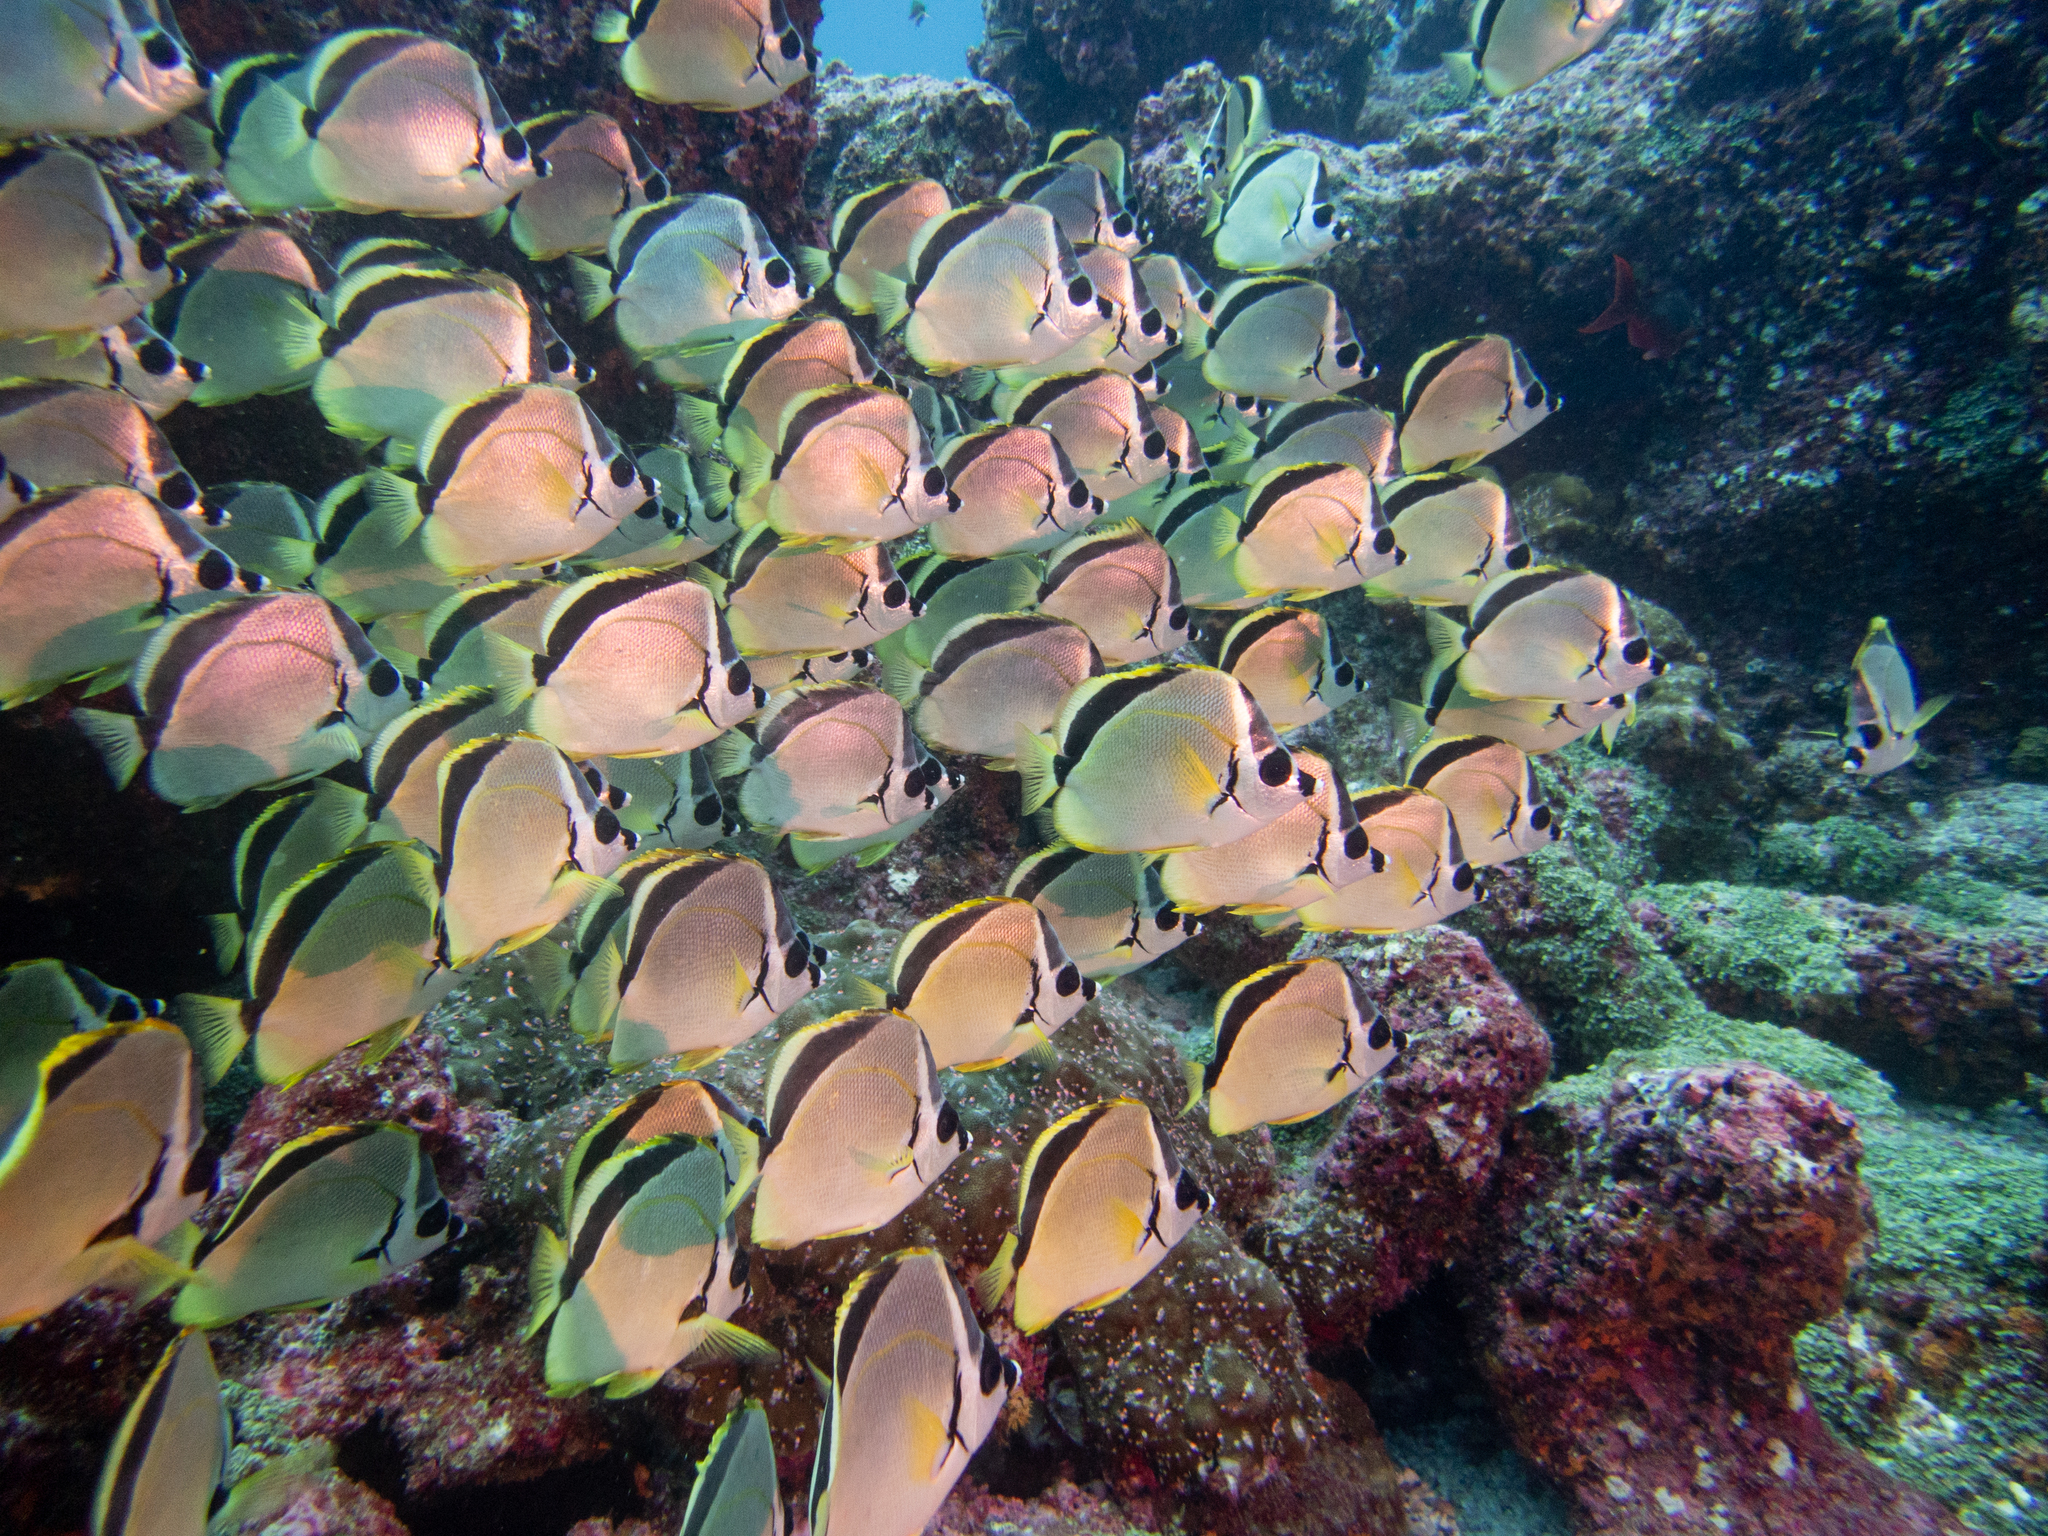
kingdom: Animalia
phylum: Chordata
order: Perciformes
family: Chaetodontidae
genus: Johnrandallia
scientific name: Johnrandallia nigrirostris
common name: Barberfish
